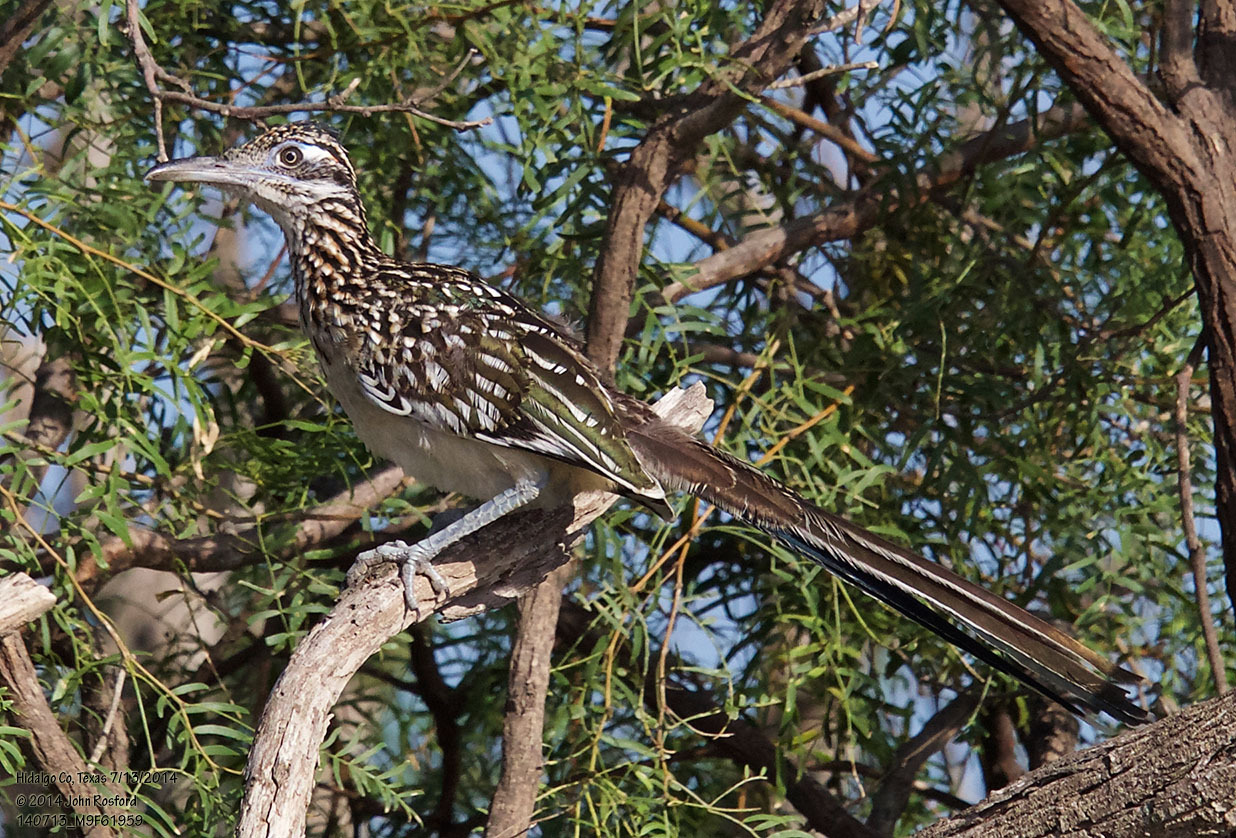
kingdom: Animalia
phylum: Chordata
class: Aves
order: Cuculiformes
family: Cuculidae
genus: Geococcyx
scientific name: Geococcyx californianus
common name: Greater roadrunner
